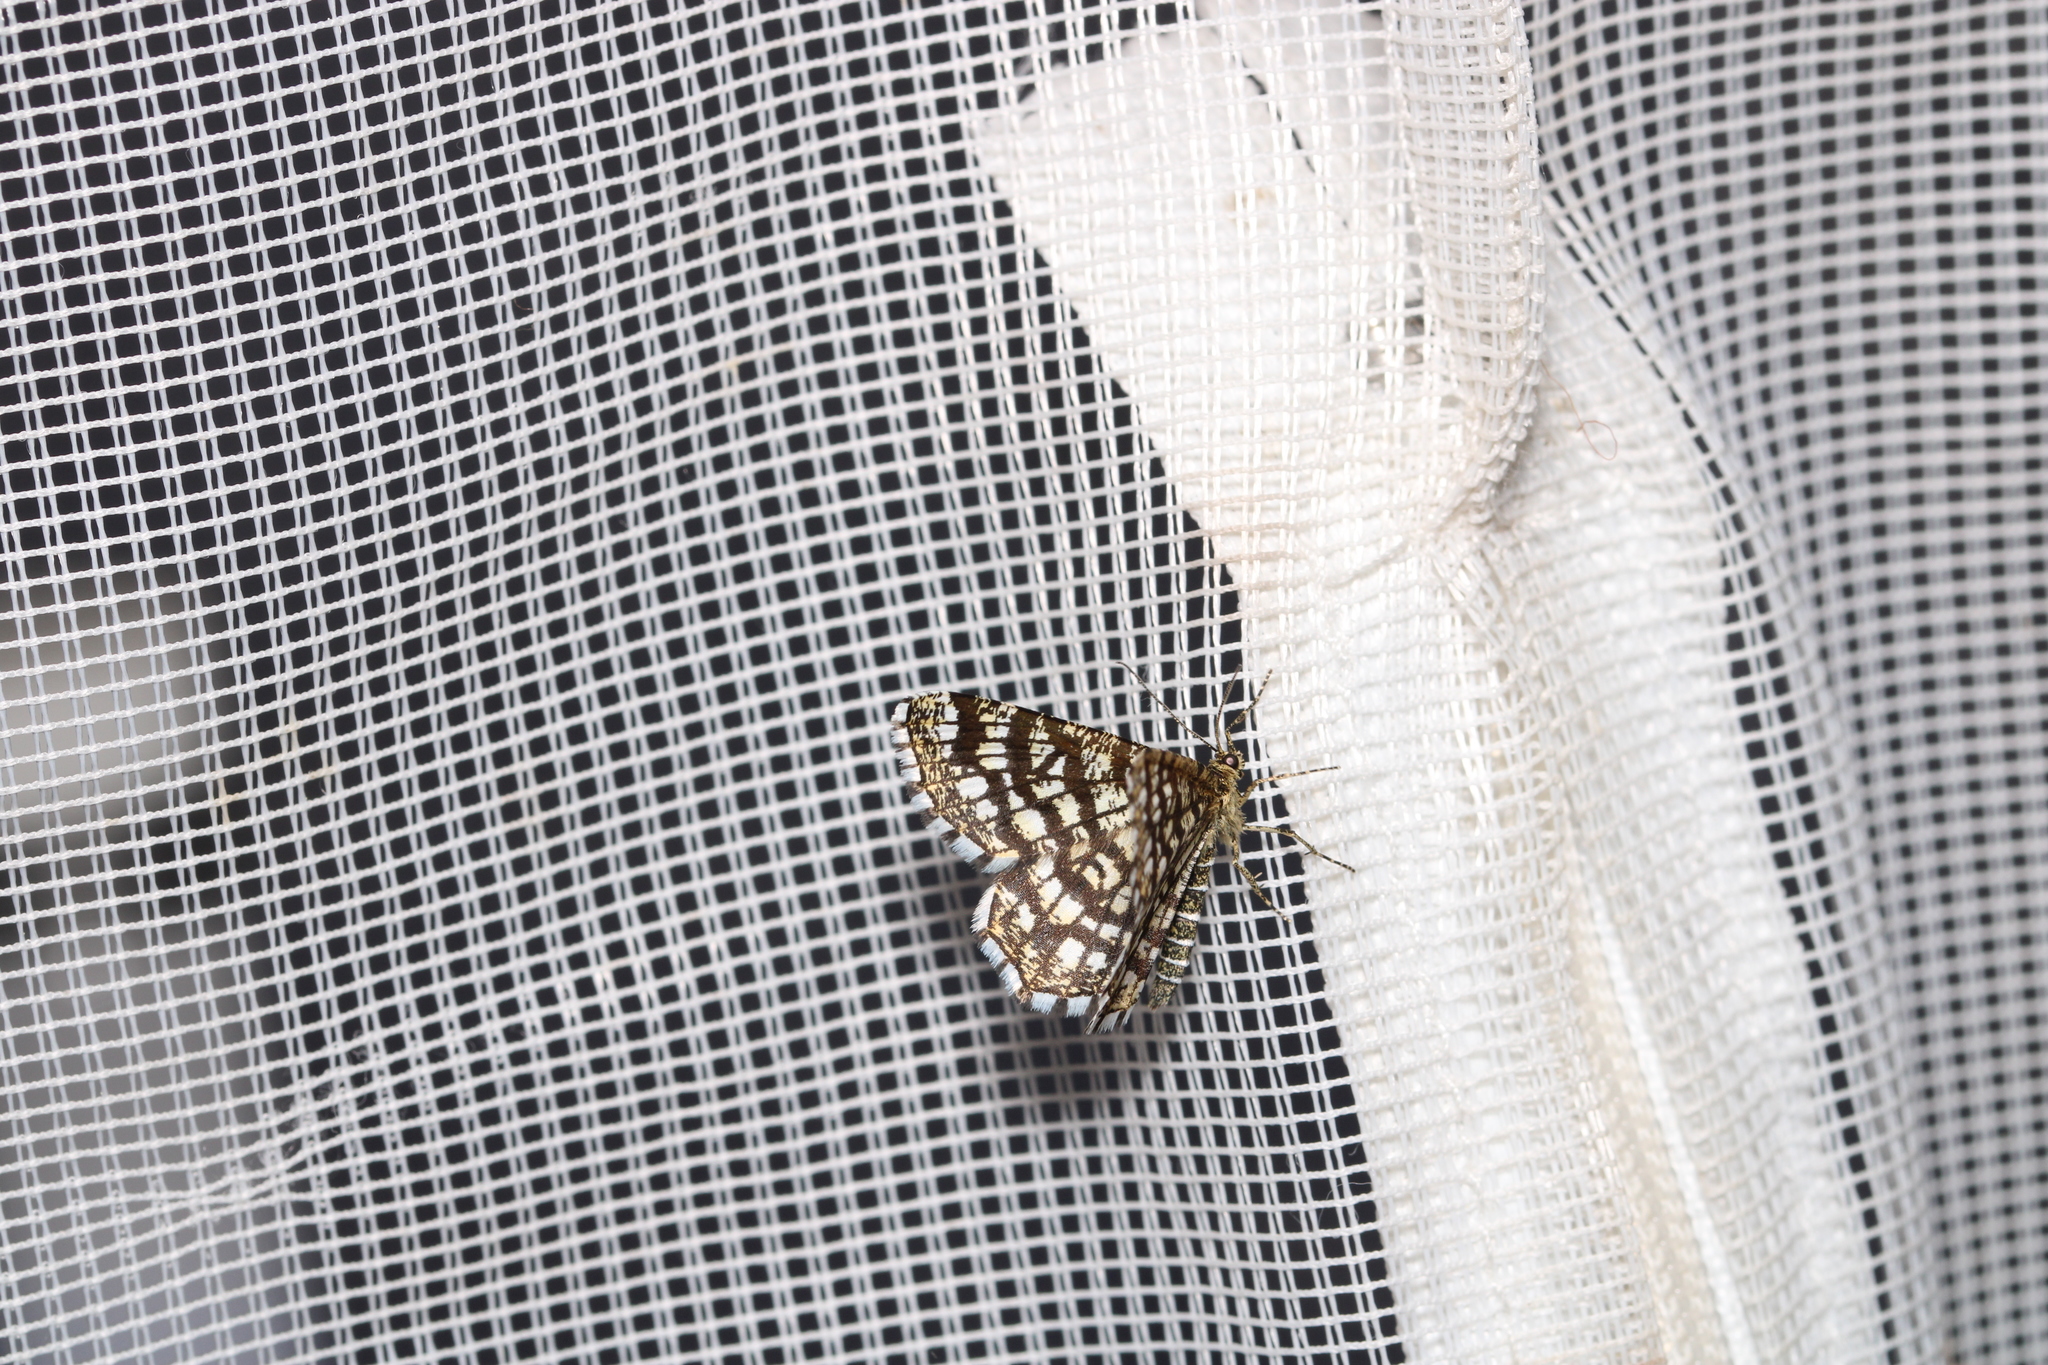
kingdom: Animalia
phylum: Arthropoda
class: Insecta
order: Lepidoptera
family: Geometridae
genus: Chiasmia
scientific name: Chiasmia clathrata
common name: Latticed heath
